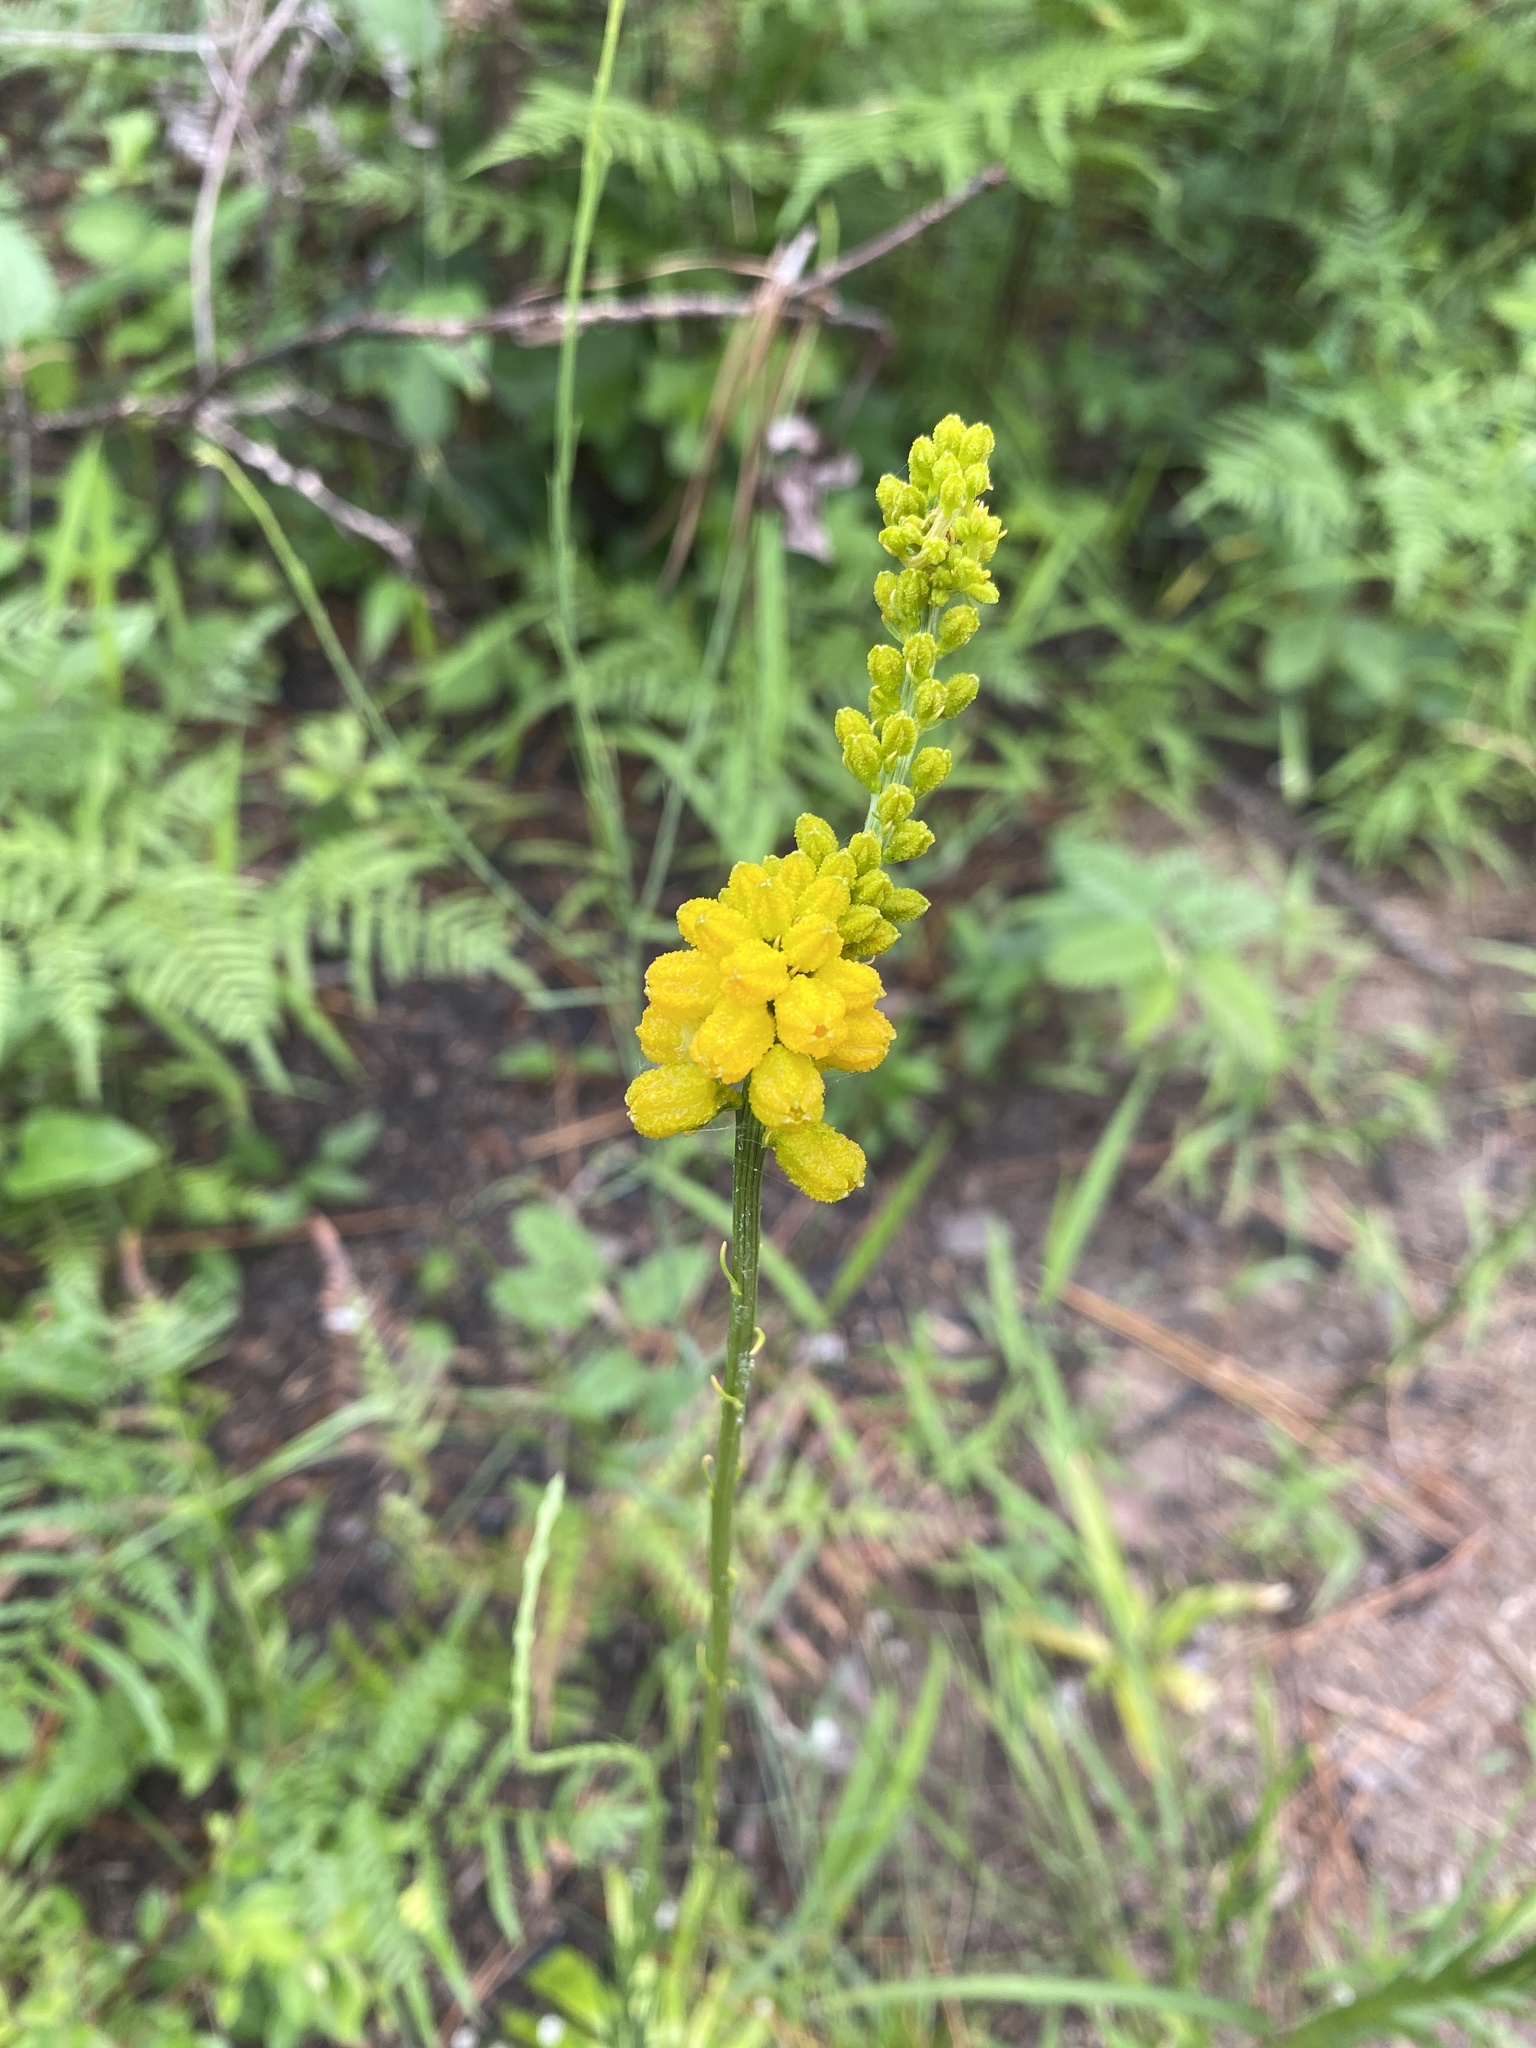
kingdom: Plantae
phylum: Tracheophyta
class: Liliopsida
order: Dioscoreales
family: Nartheciaceae
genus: Aletris
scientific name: Aletris aurea
